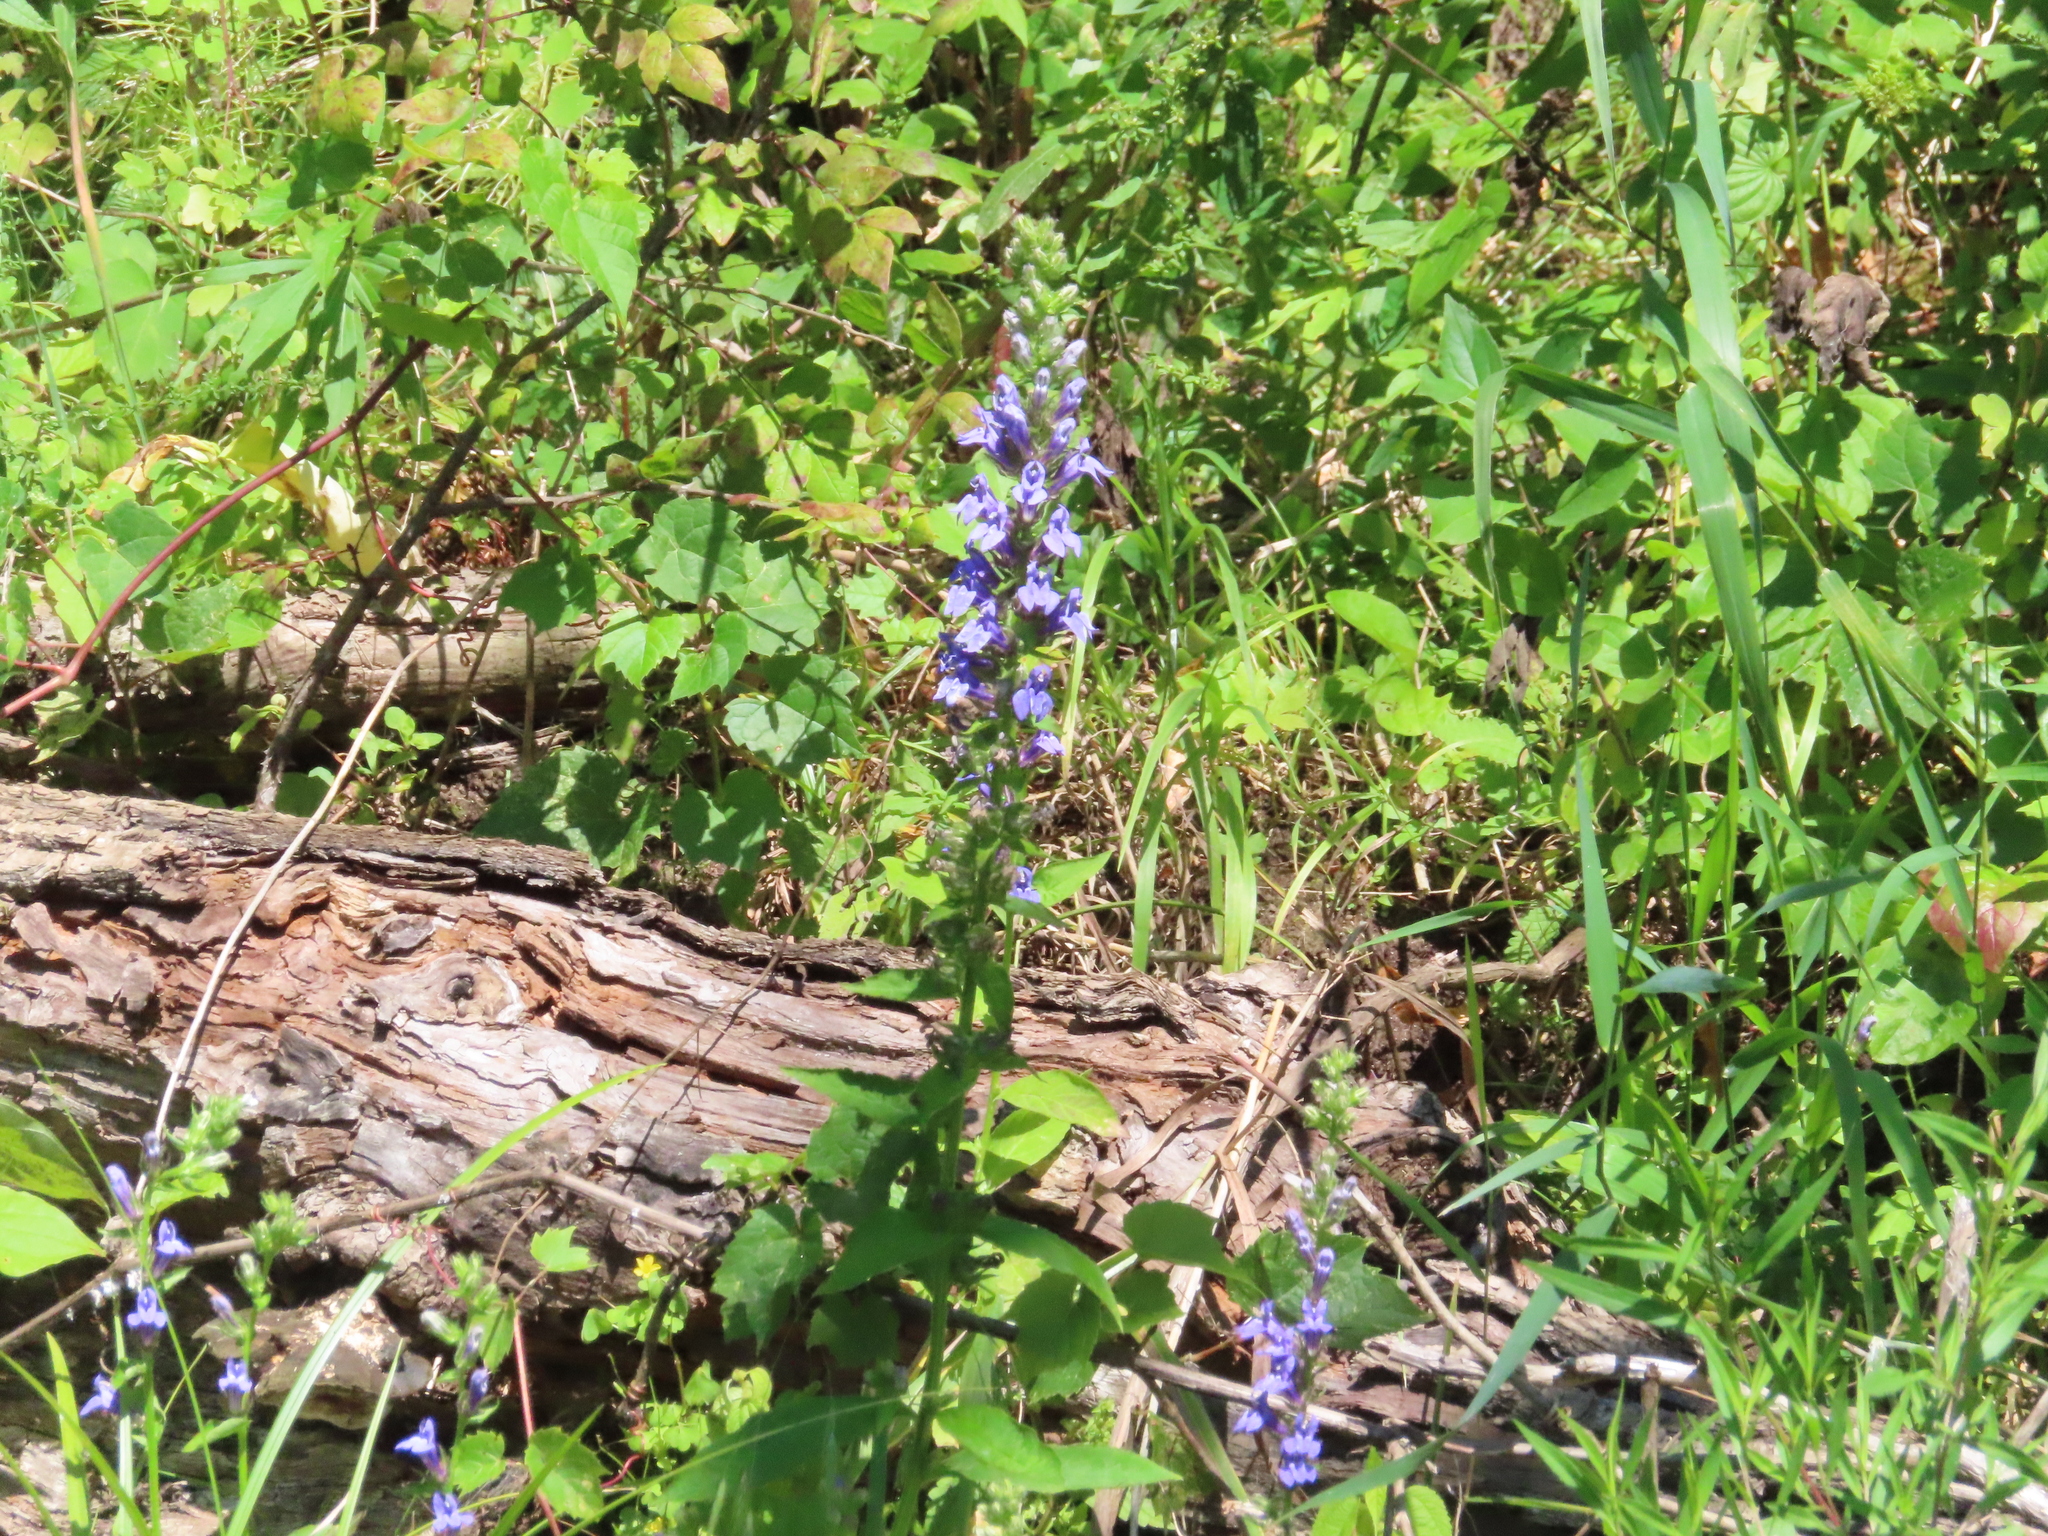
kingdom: Plantae
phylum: Tracheophyta
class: Magnoliopsida
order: Asterales
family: Campanulaceae
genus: Lobelia
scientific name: Lobelia siphilitica
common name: Great lobelia
